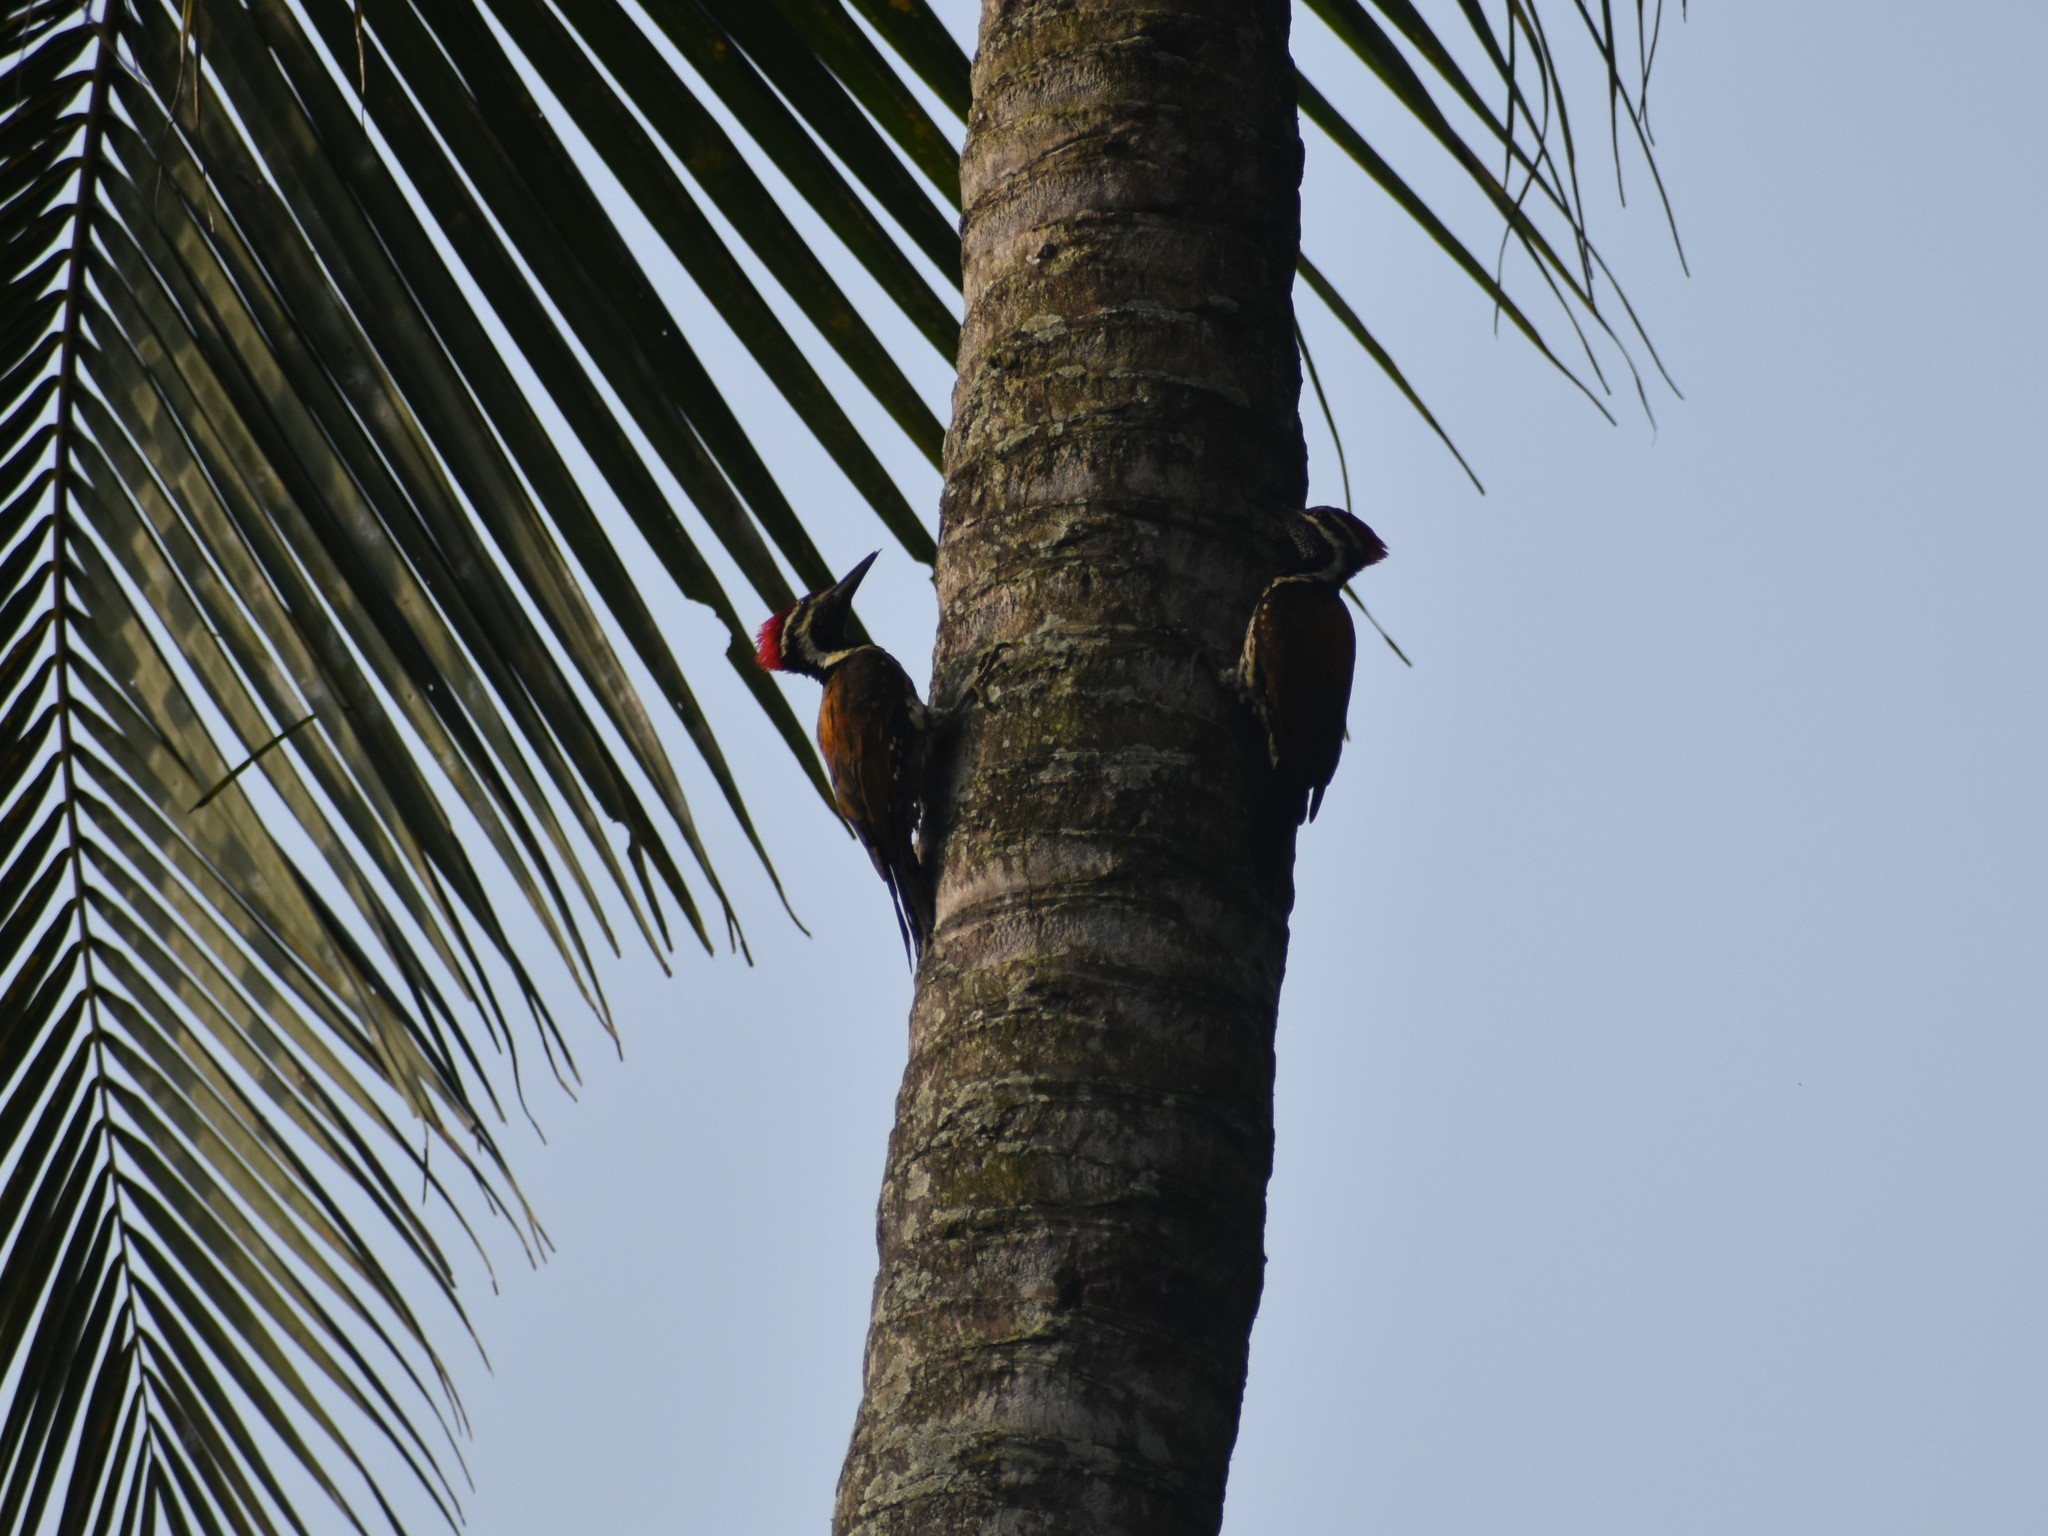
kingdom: Animalia
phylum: Chordata
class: Aves
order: Piciformes
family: Picidae
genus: Dinopium
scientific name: Dinopium benghalense
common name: Black-rumped flameback
